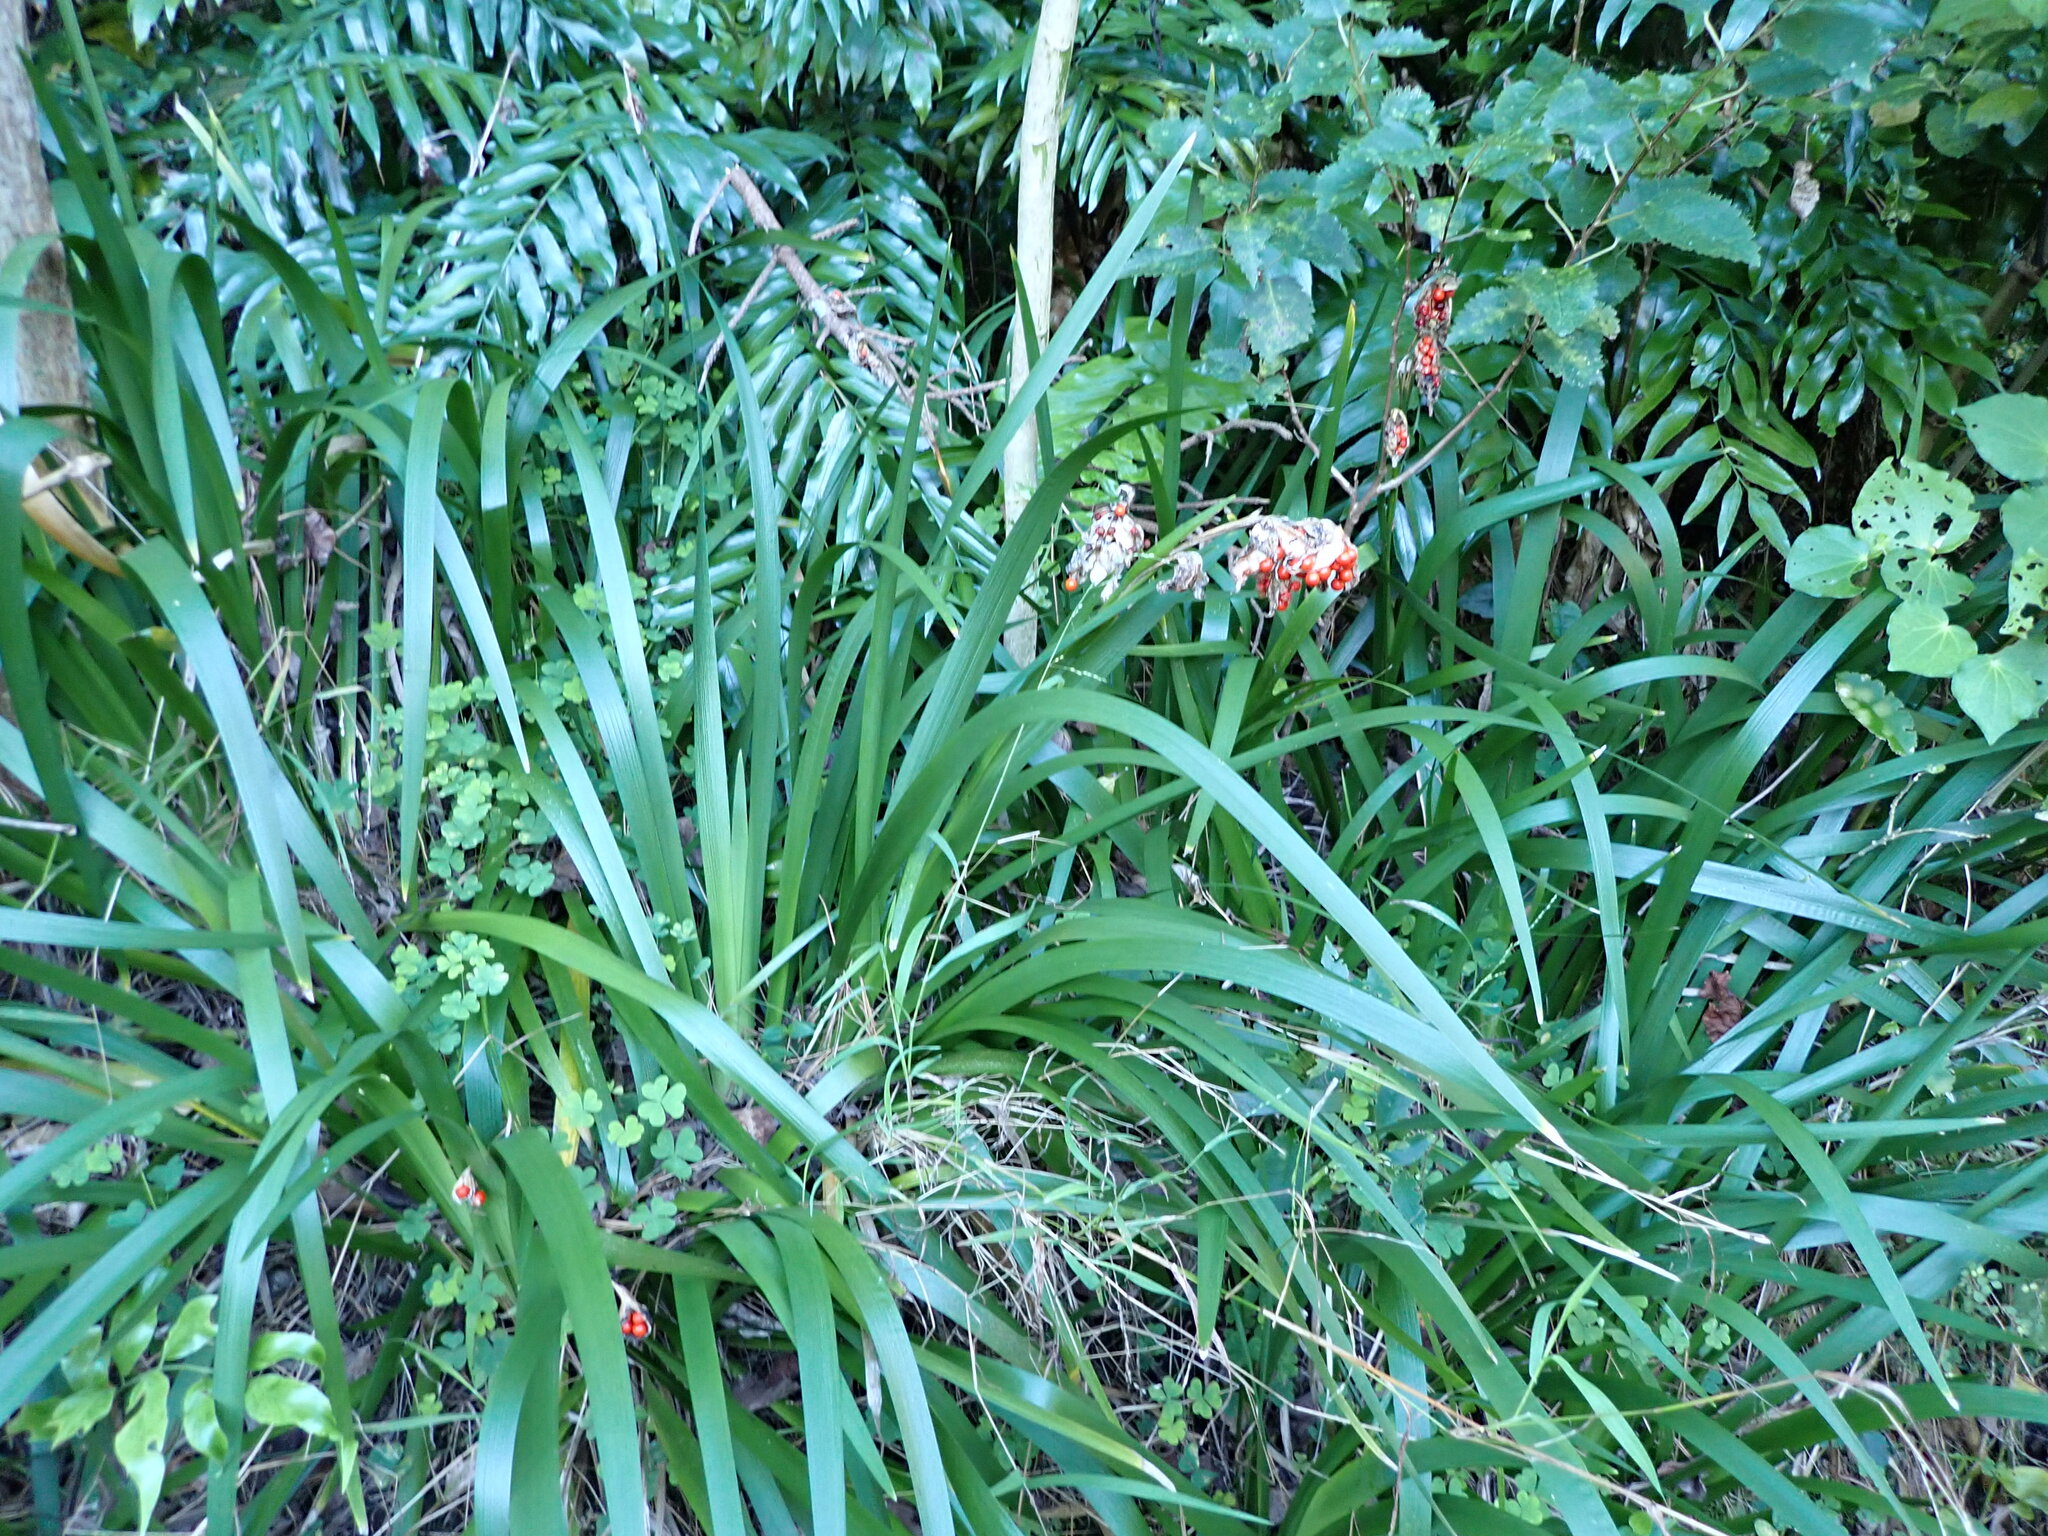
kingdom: Plantae
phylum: Tracheophyta
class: Liliopsida
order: Asparagales
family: Iridaceae
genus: Iris
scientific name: Iris foetidissima
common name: Stinking iris
